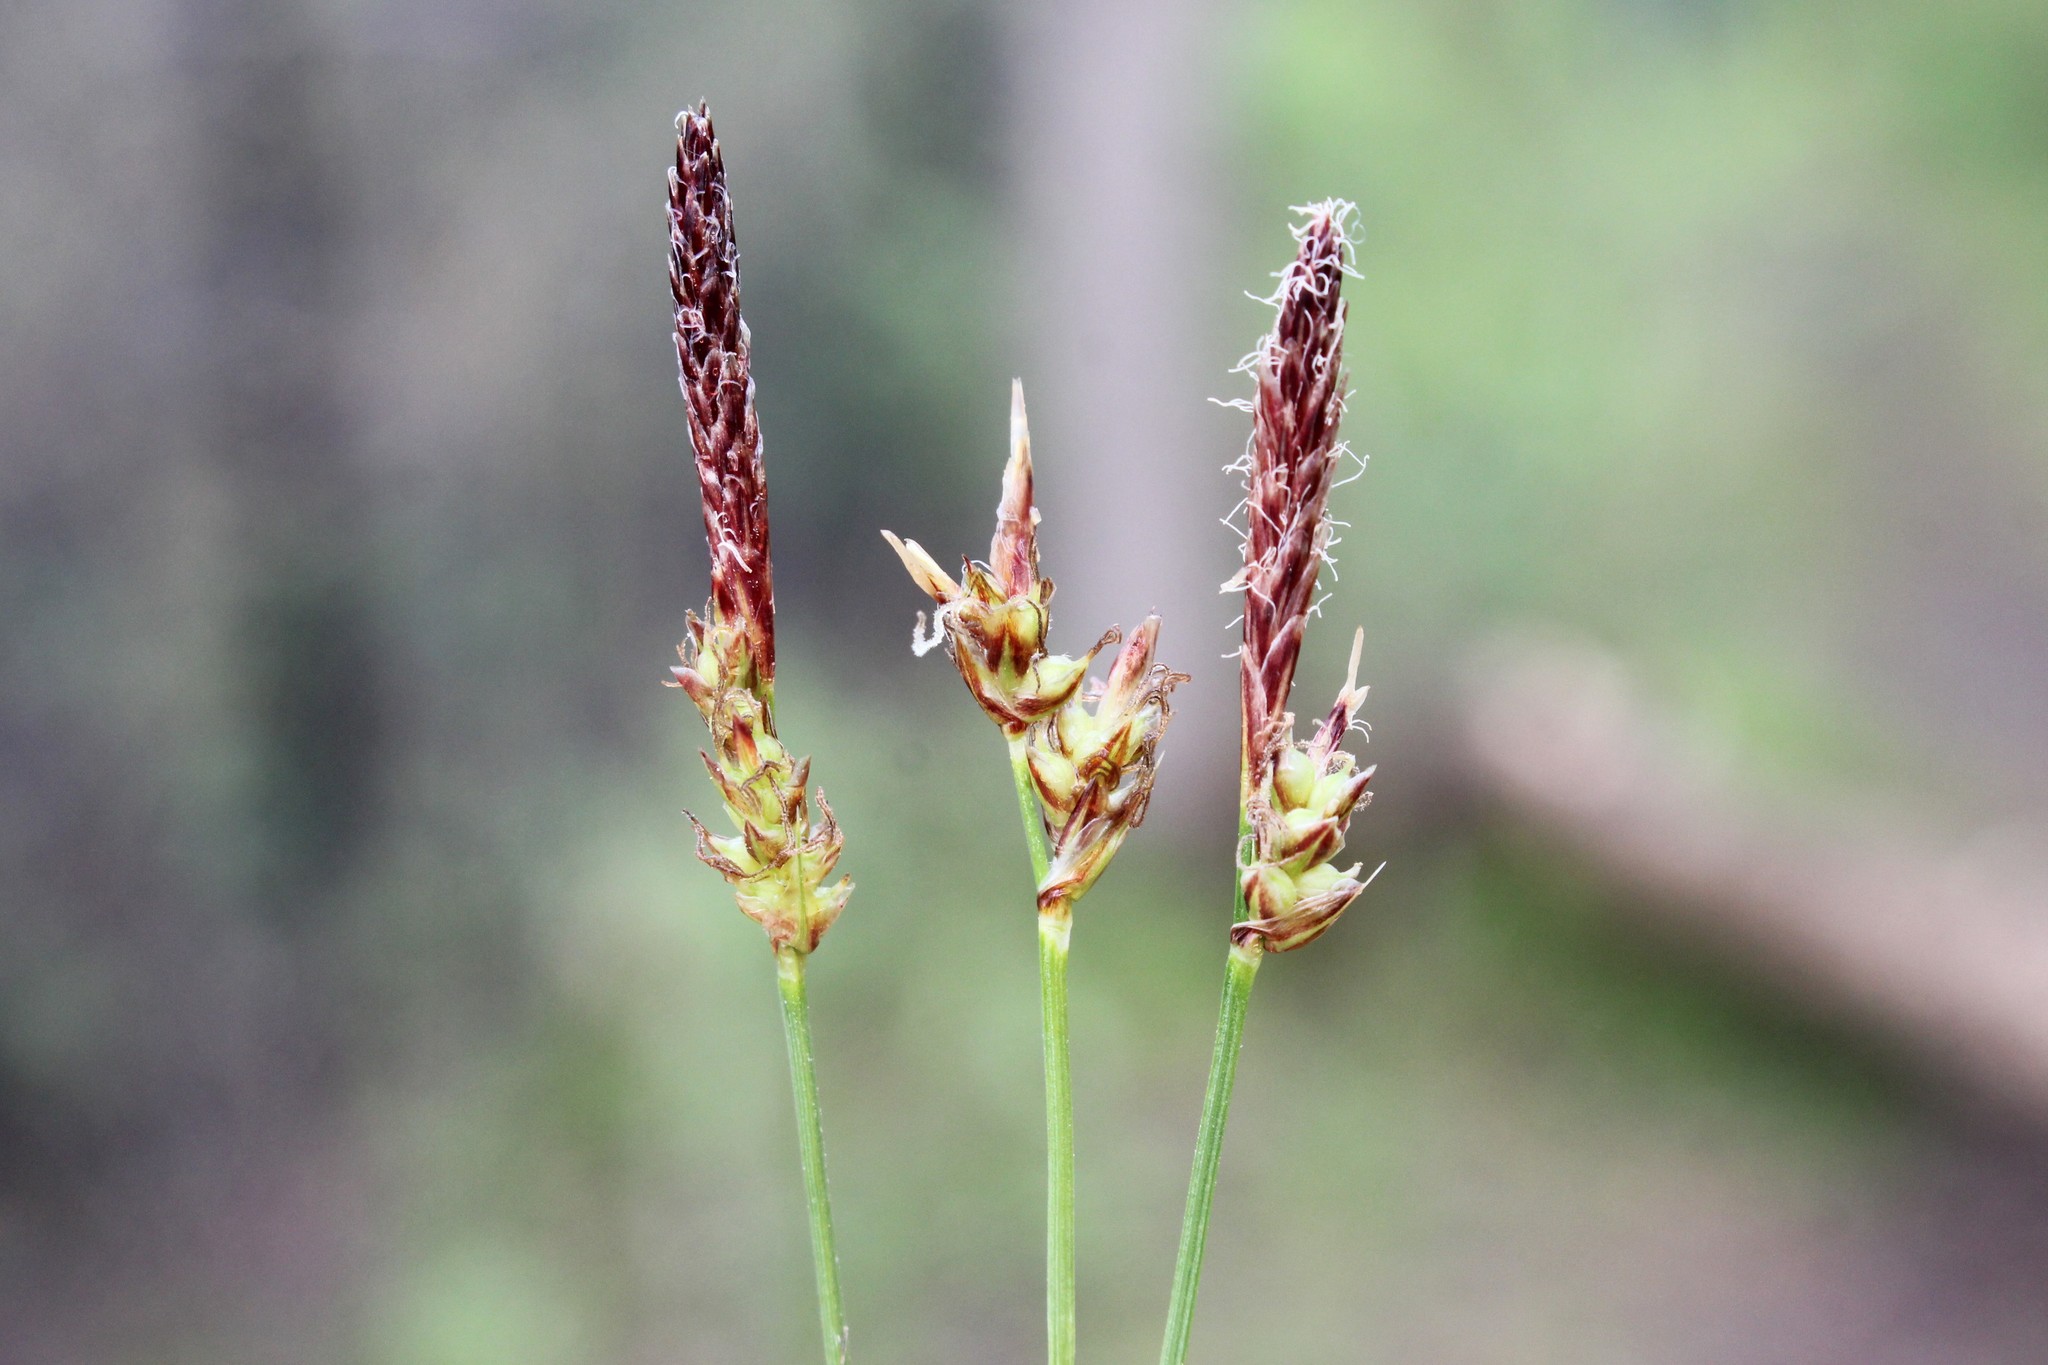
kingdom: Plantae
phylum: Tracheophyta
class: Liliopsida
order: Poales
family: Cyperaceae
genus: Carex
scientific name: Carex pensylvanica
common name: Common oak sedge
